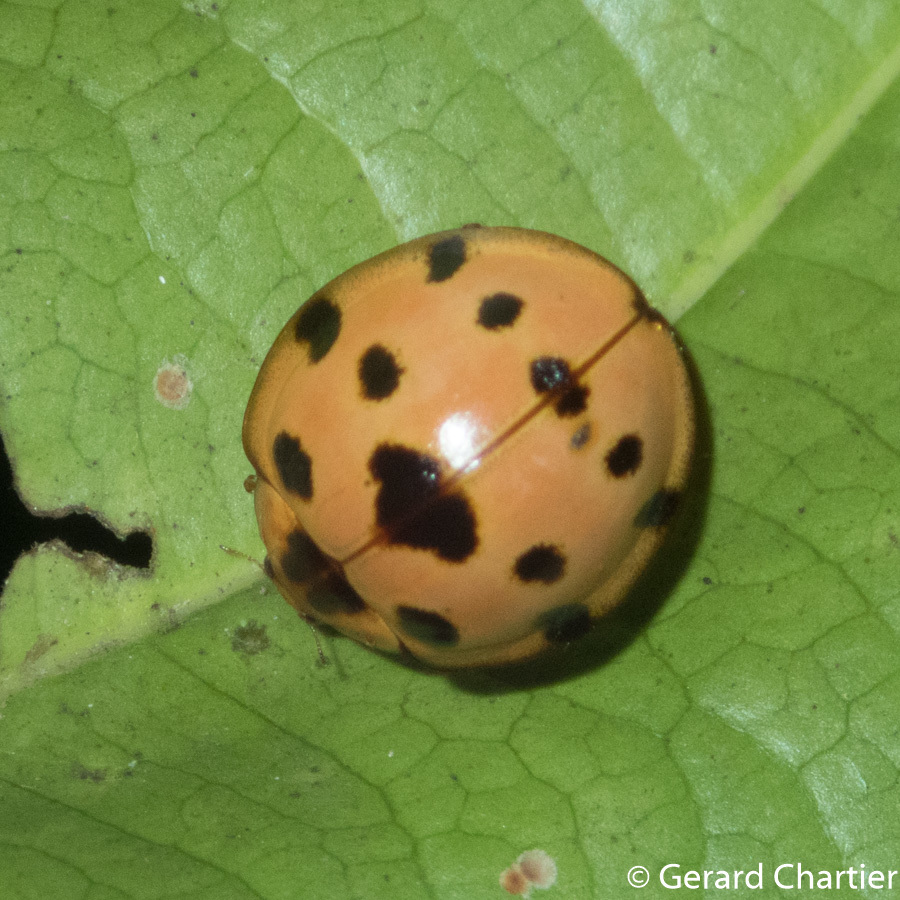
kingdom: Animalia
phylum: Arthropoda
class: Insecta
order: Coleoptera
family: Coccinellidae
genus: Synonycha
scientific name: Synonycha grandis
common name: Lady beetle
